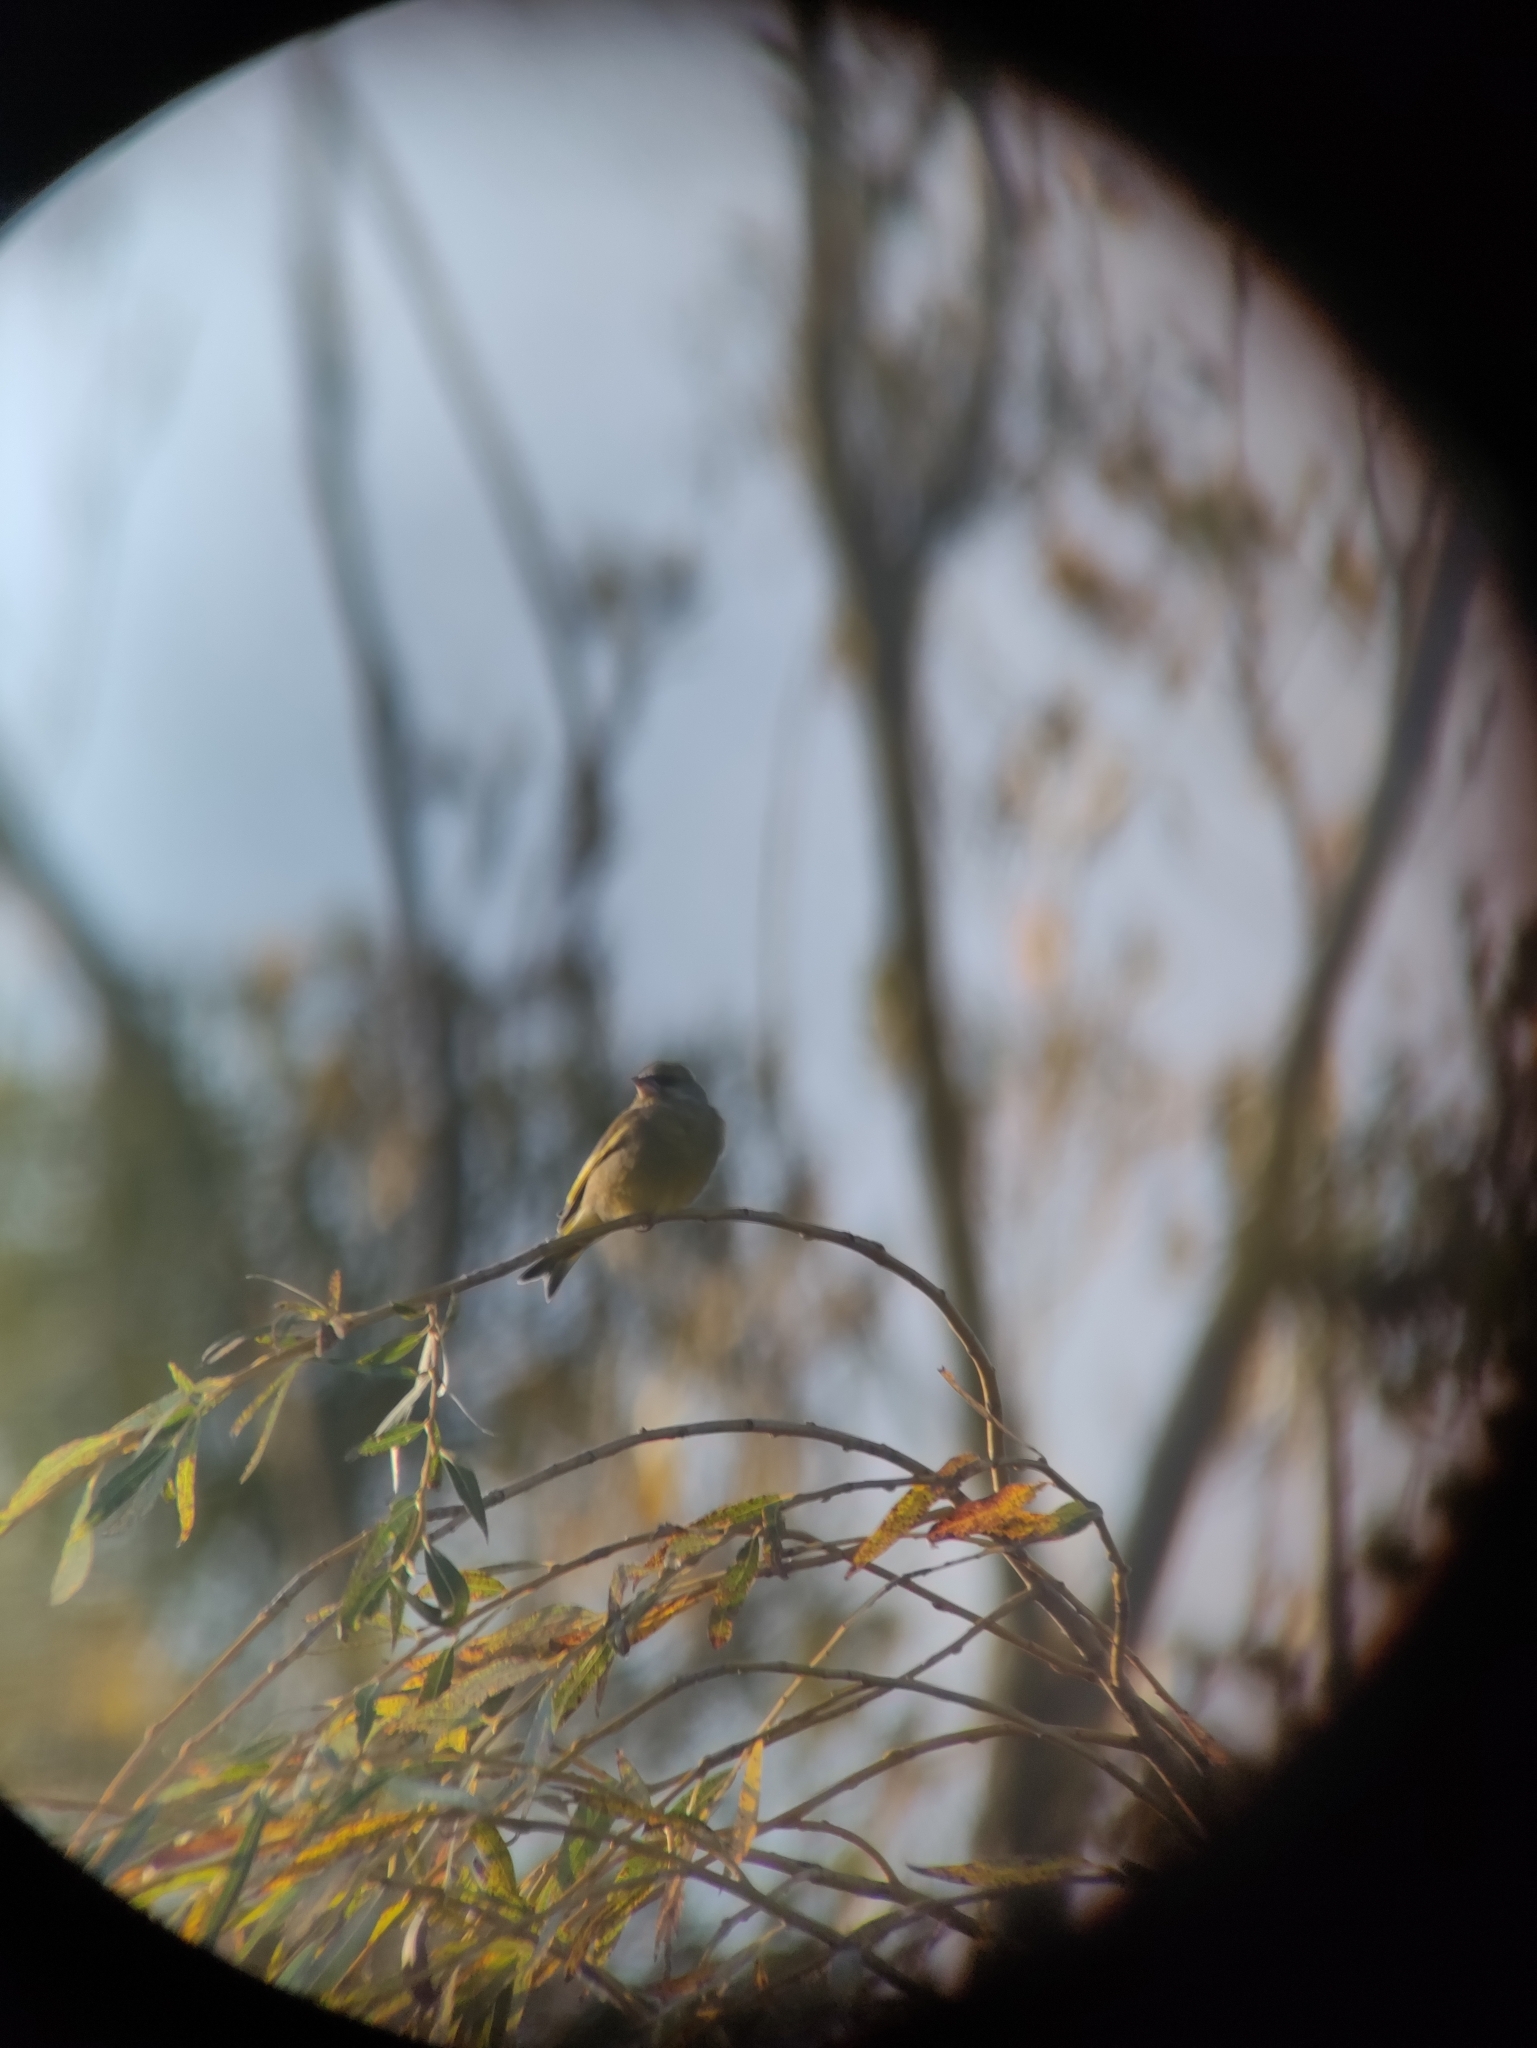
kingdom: Plantae
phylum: Tracheophyta
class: Liliopsida
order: Poales
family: Poaceae
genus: Chloris
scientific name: Chloris chloris
